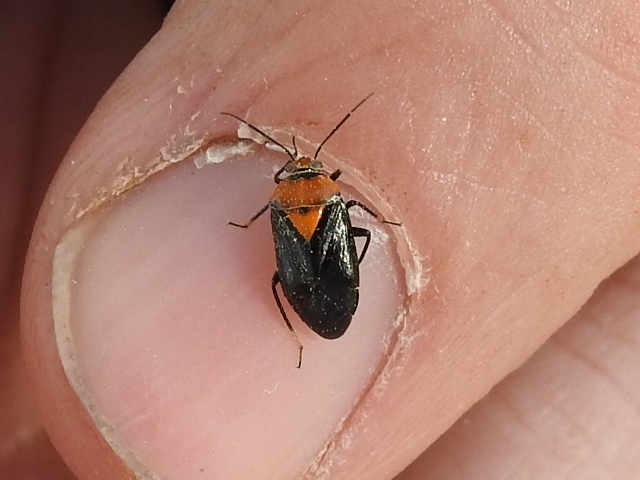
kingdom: Animalia
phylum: Arthropoda
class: Insecta
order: Hemiptera
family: Miridae
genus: Neocapsus
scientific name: Neocapsus cuneatus
